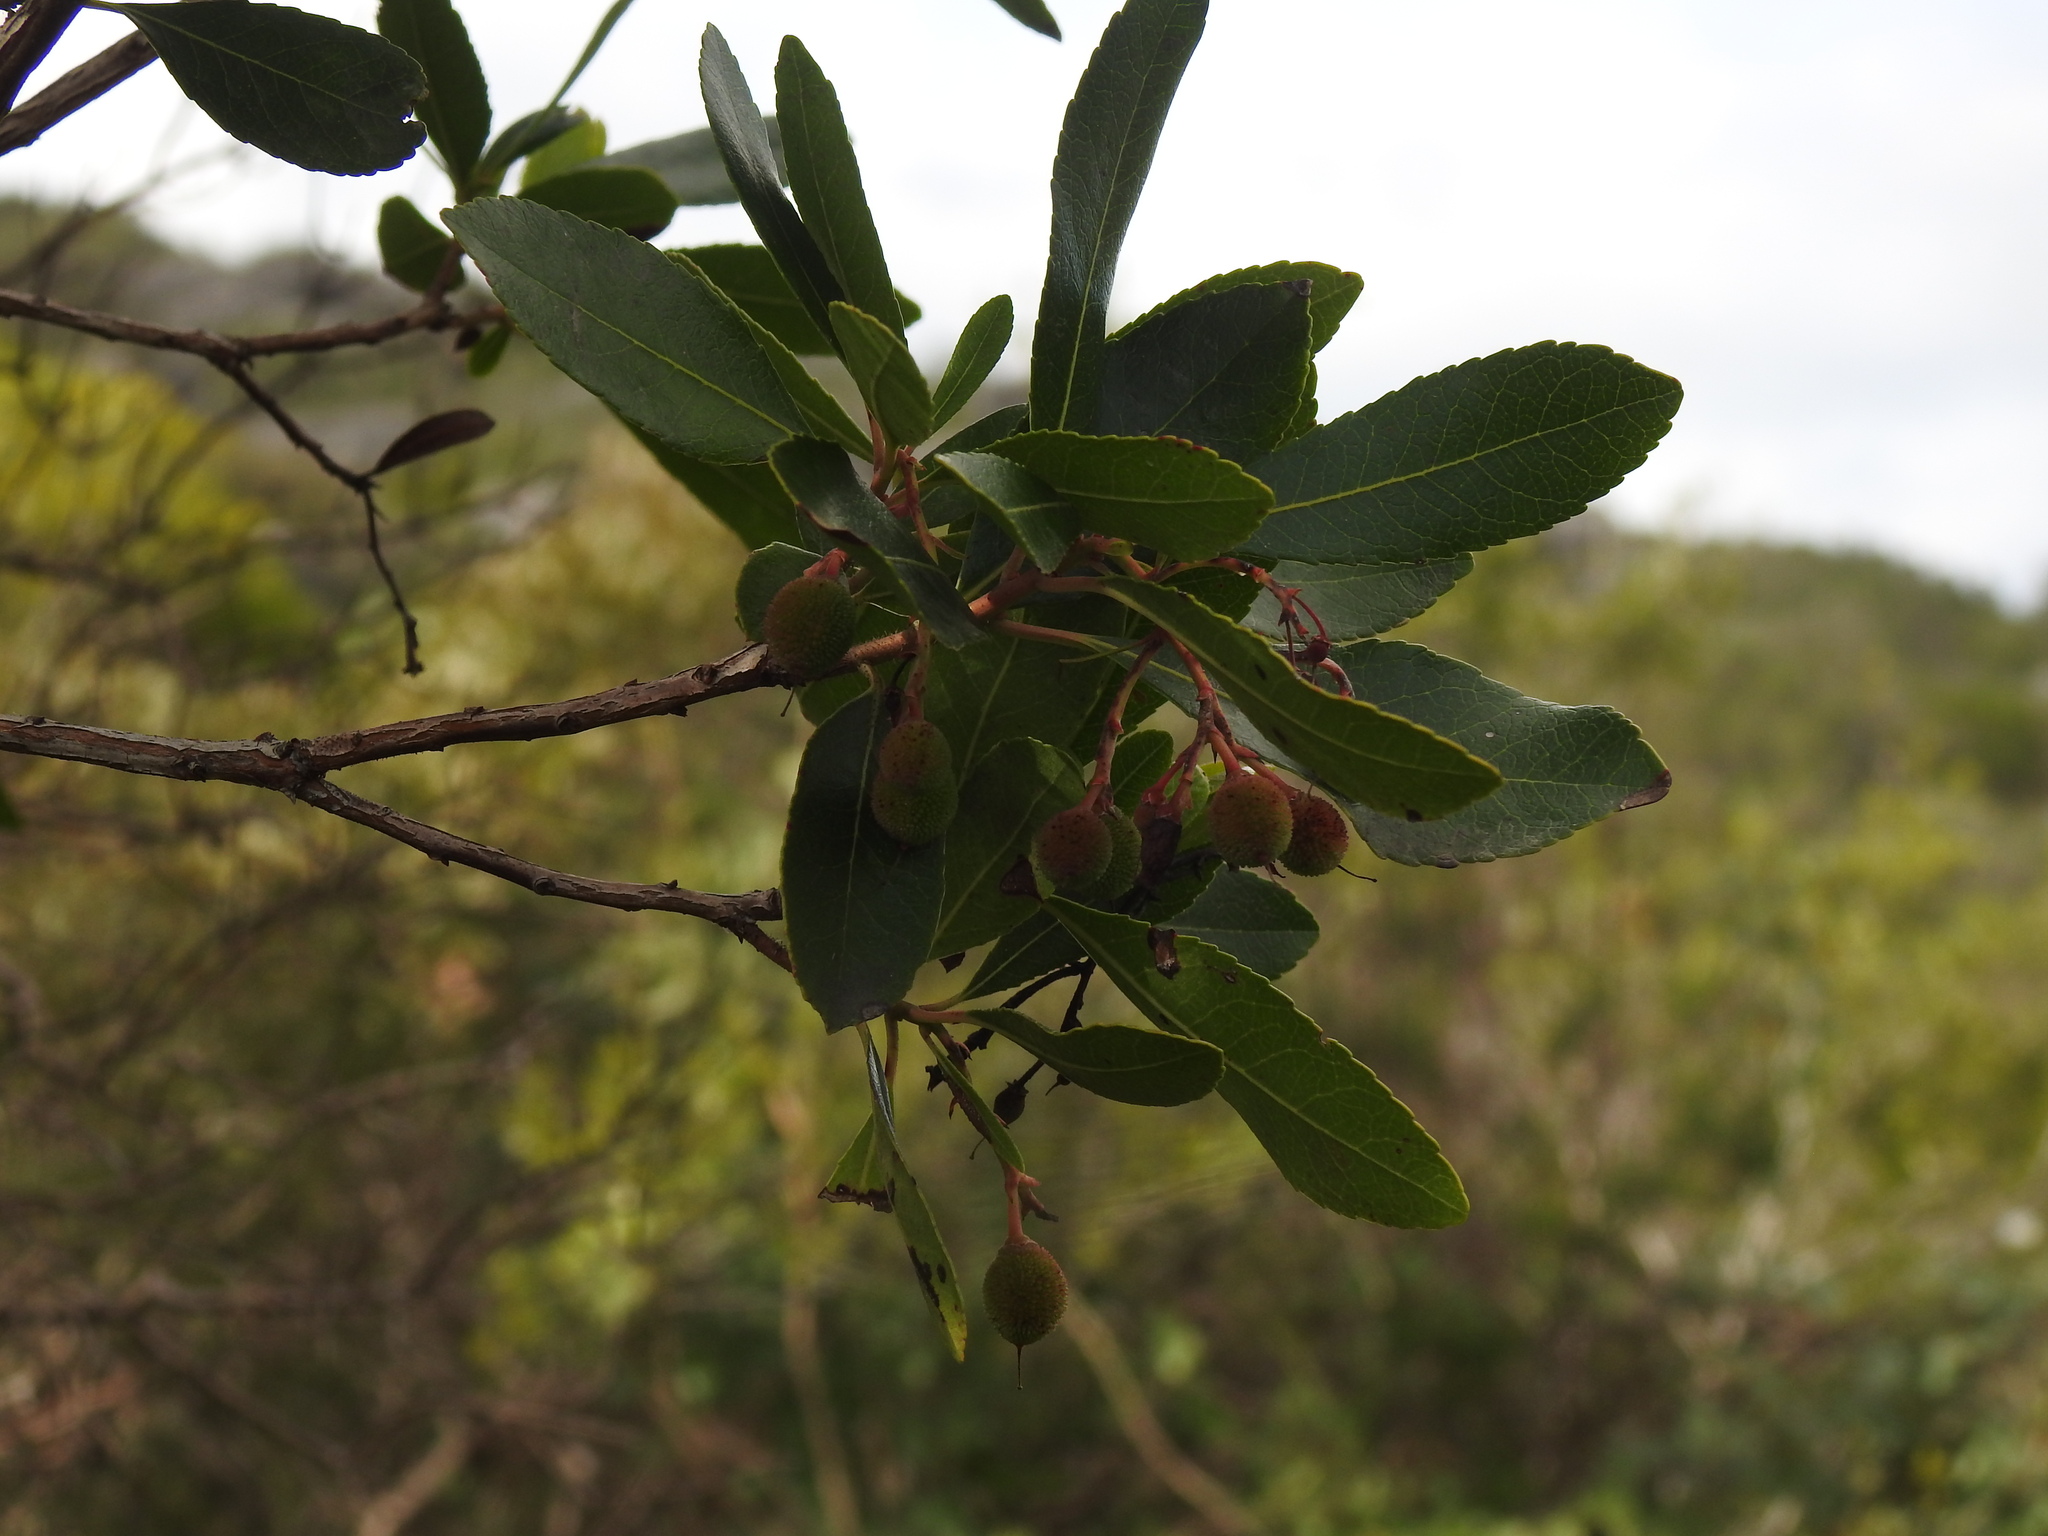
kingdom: Plantae
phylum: Tracheophyta
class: Magnoliopsida
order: Ericales
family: Ericaceae
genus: Arbutus
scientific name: Arbutus unedo
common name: Strawberry-tree
